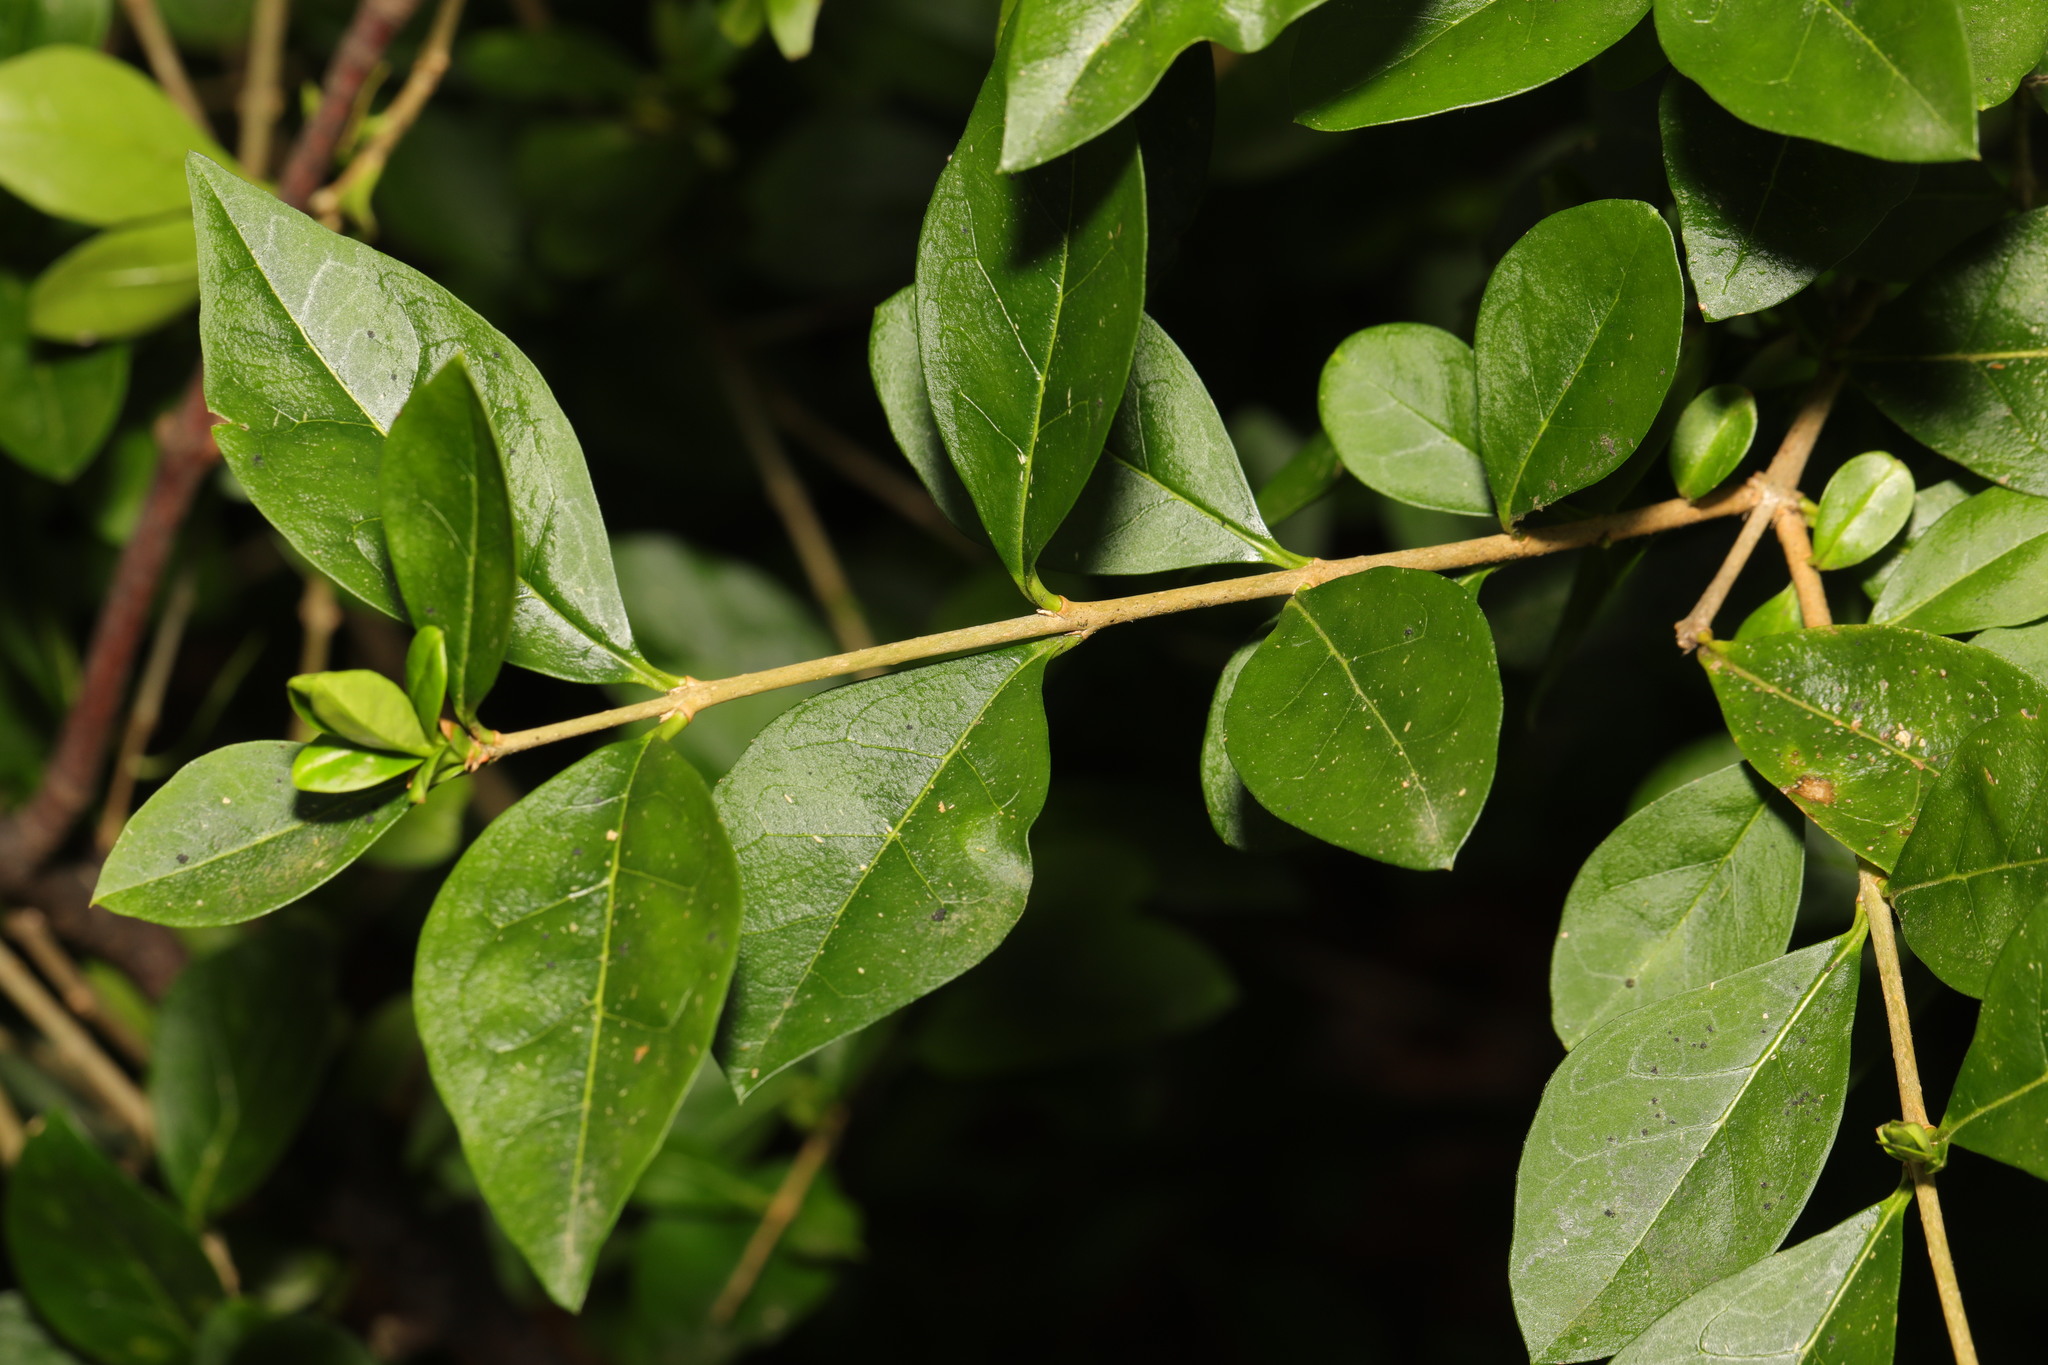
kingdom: Plantae
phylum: Tracheophyta
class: Magnoliopsida
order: Lamiales
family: Oleaceae
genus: Ligustrum
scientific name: Ligustrum ovalifolium
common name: California privet
